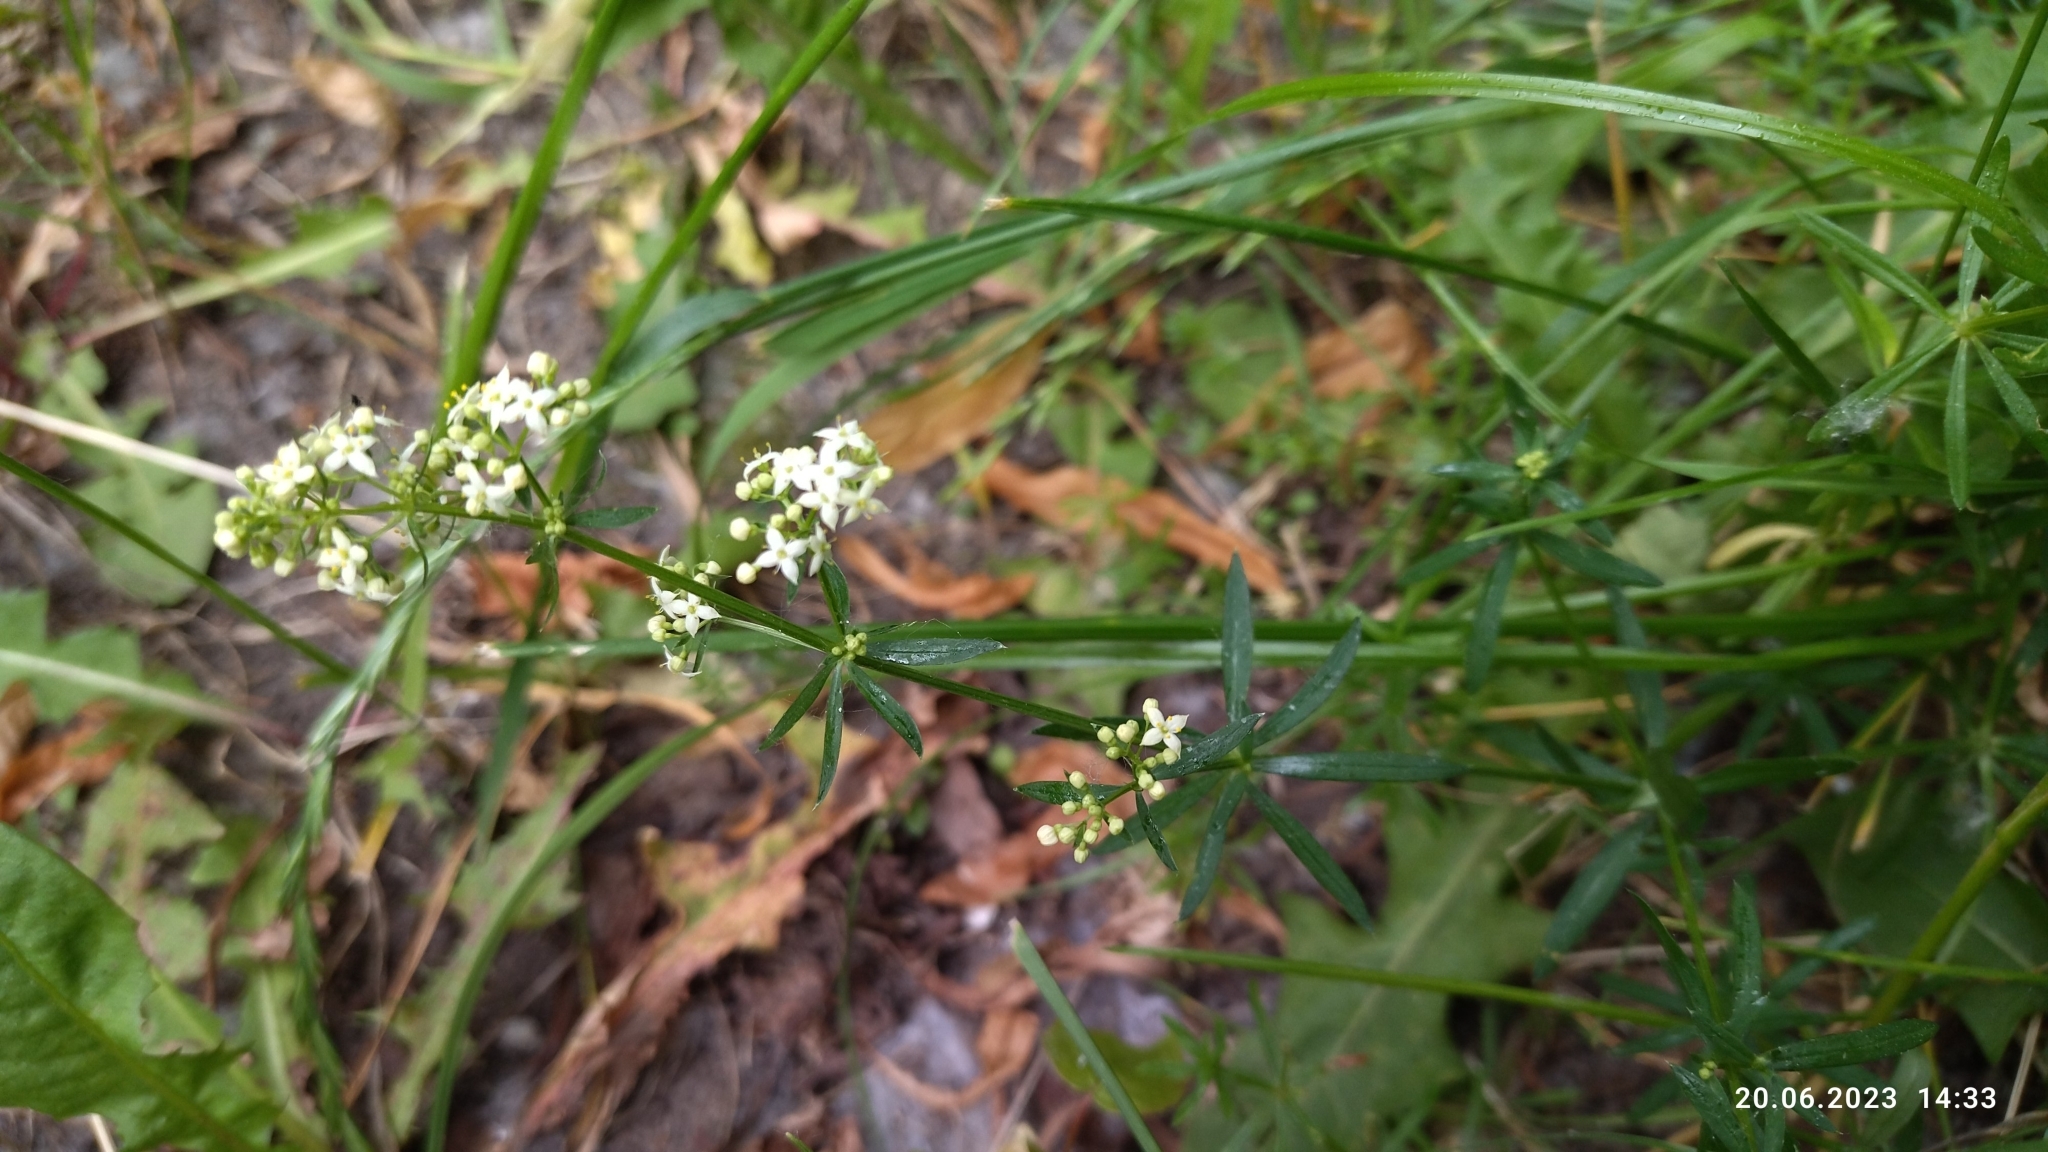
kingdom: Plantae
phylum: Tracheophyta
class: Magnoliopsida
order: Gentianales
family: Rubiaceae
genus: Galium
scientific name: Galium mollugo
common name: Hedge bedstraw
